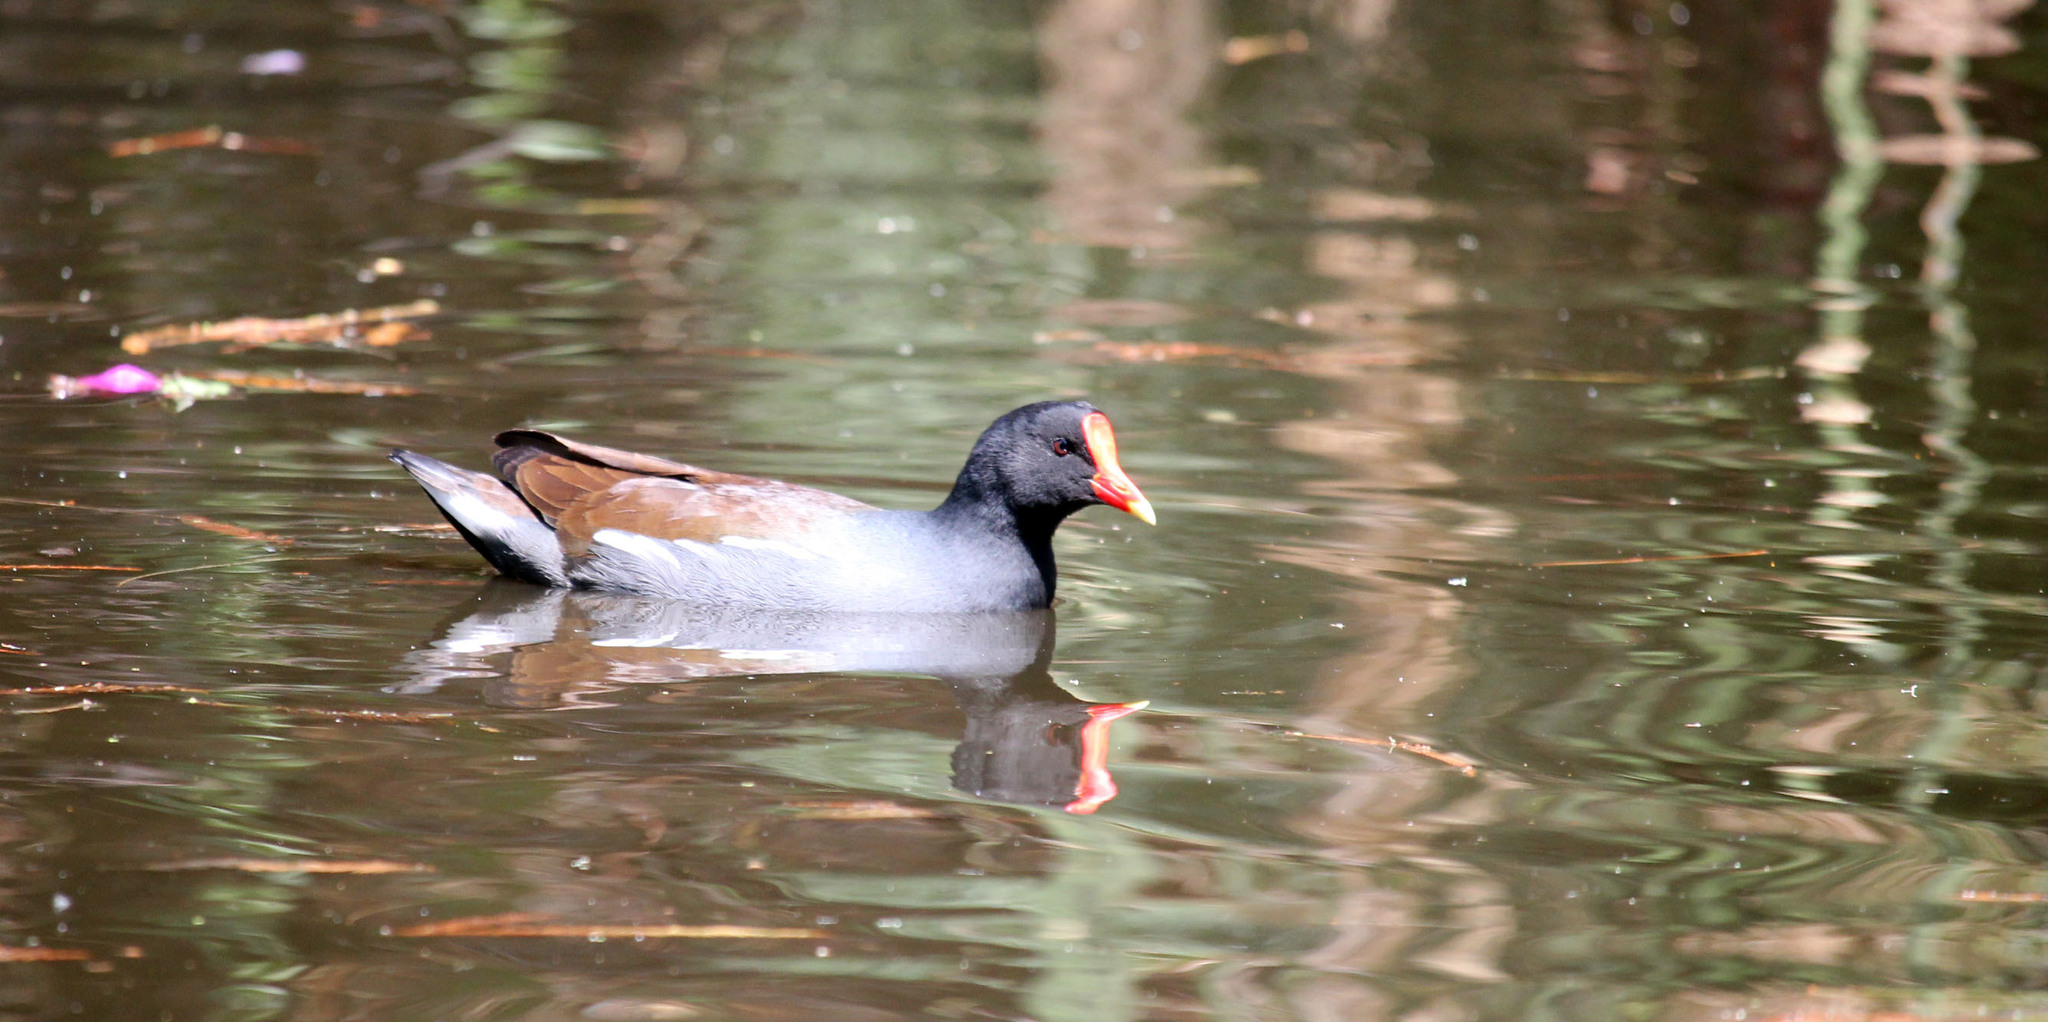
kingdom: Animalia
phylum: Chordata
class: Aves
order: Gruiformes
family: Rallidae
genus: Gallinula
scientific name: Gallinula chloropus
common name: Common moorhen
